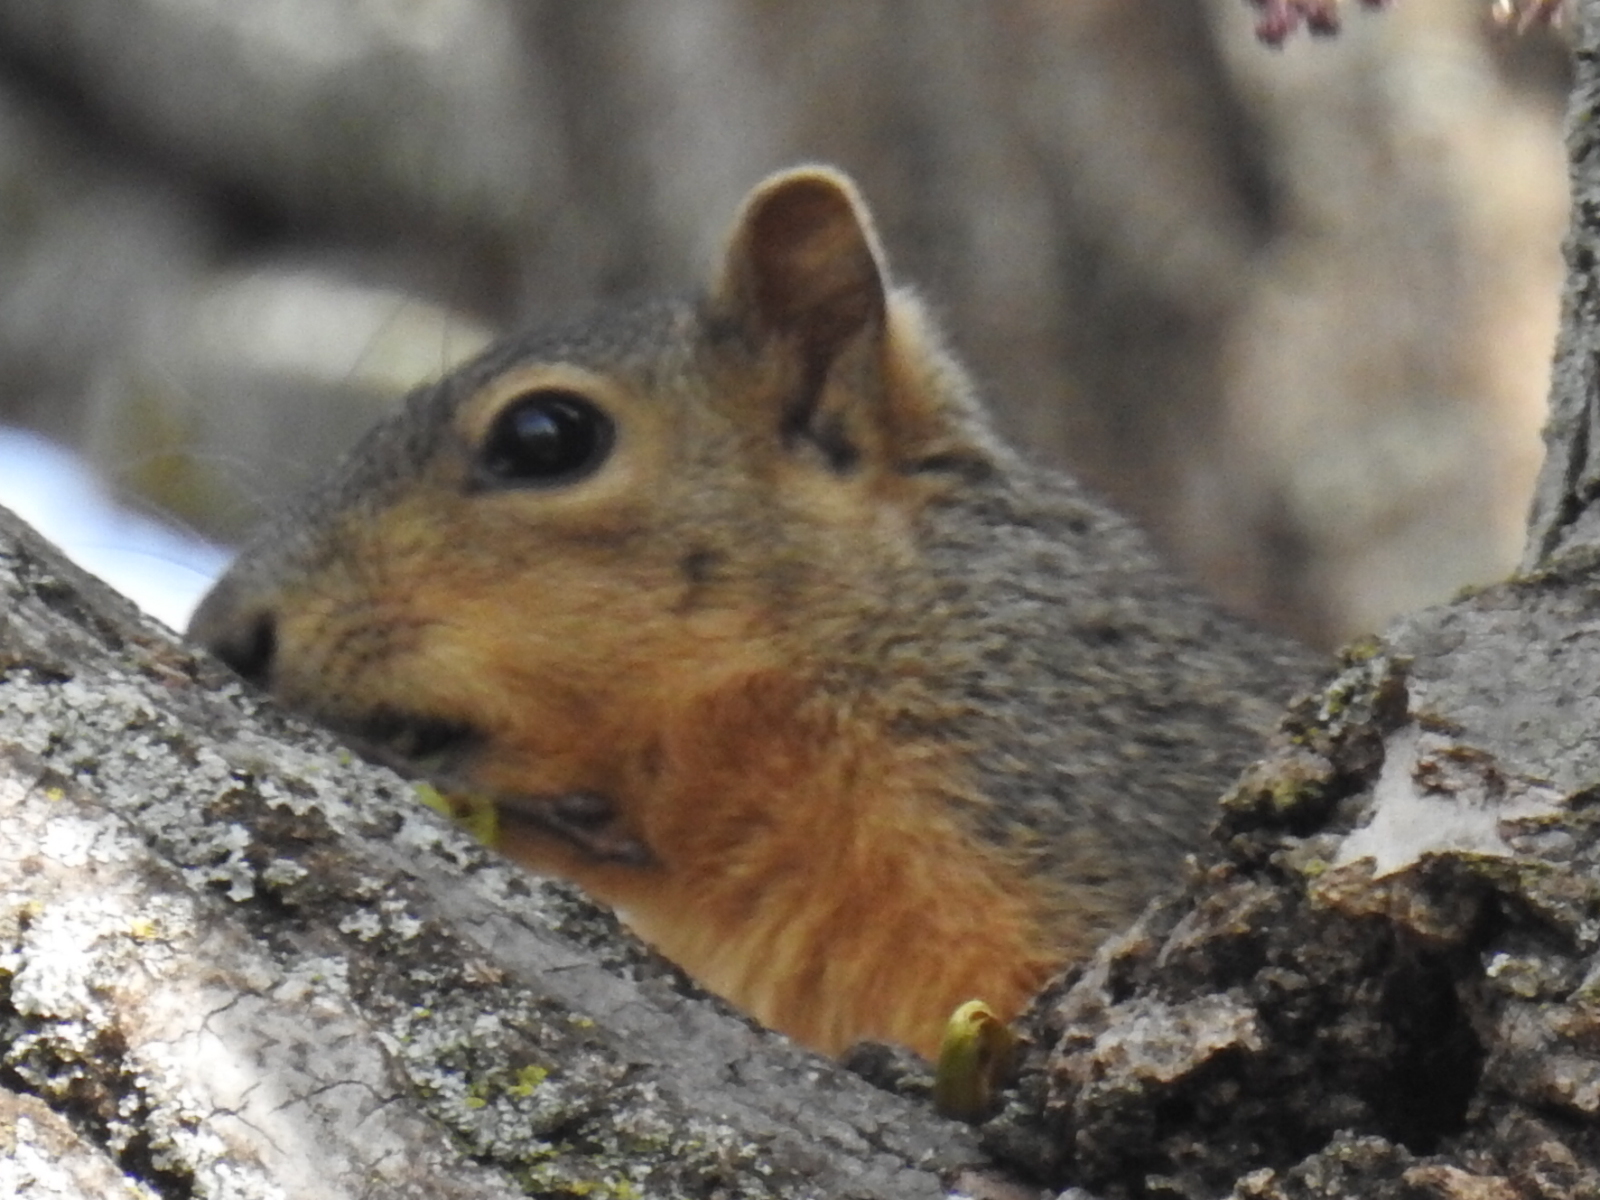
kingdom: Animalia
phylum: Chordata
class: Mammalia
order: Rodentia
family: Sciuridae
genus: Sciurus
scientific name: Sciurus niger
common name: Fox squirrel
